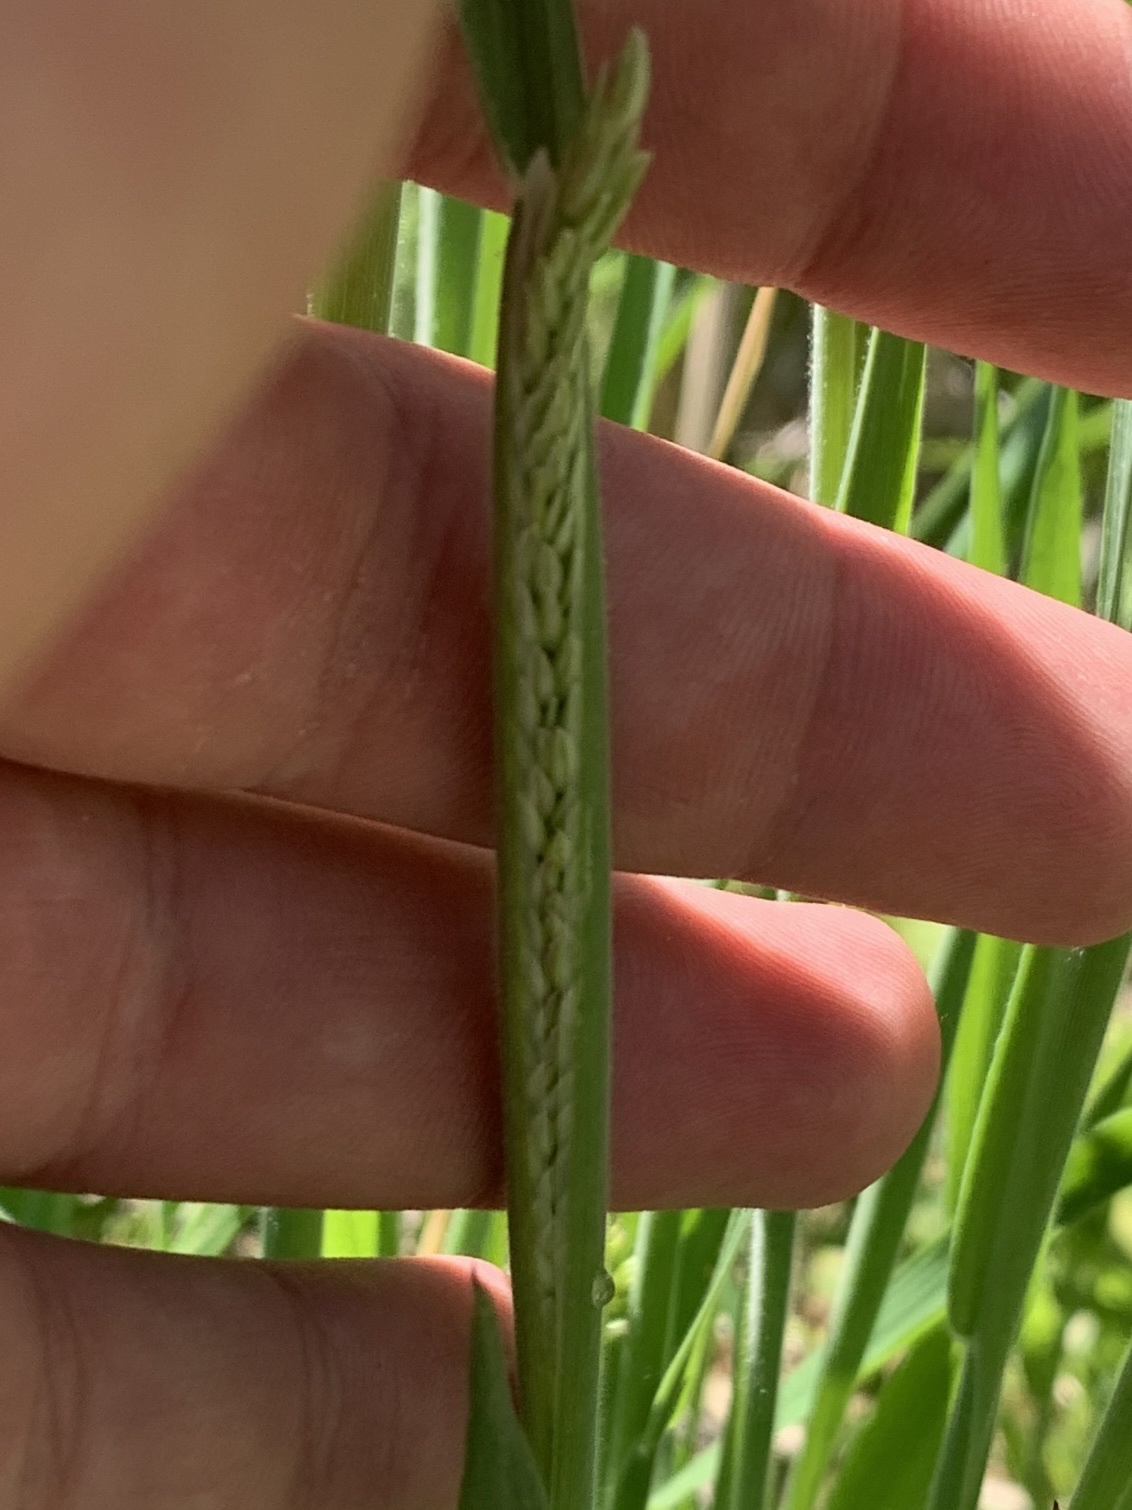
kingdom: Plantae
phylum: Tracheophyta
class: Liliopsida
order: Poales
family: Poaceae
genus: Leersia
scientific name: Leersia oryzoides
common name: Cut-grass
